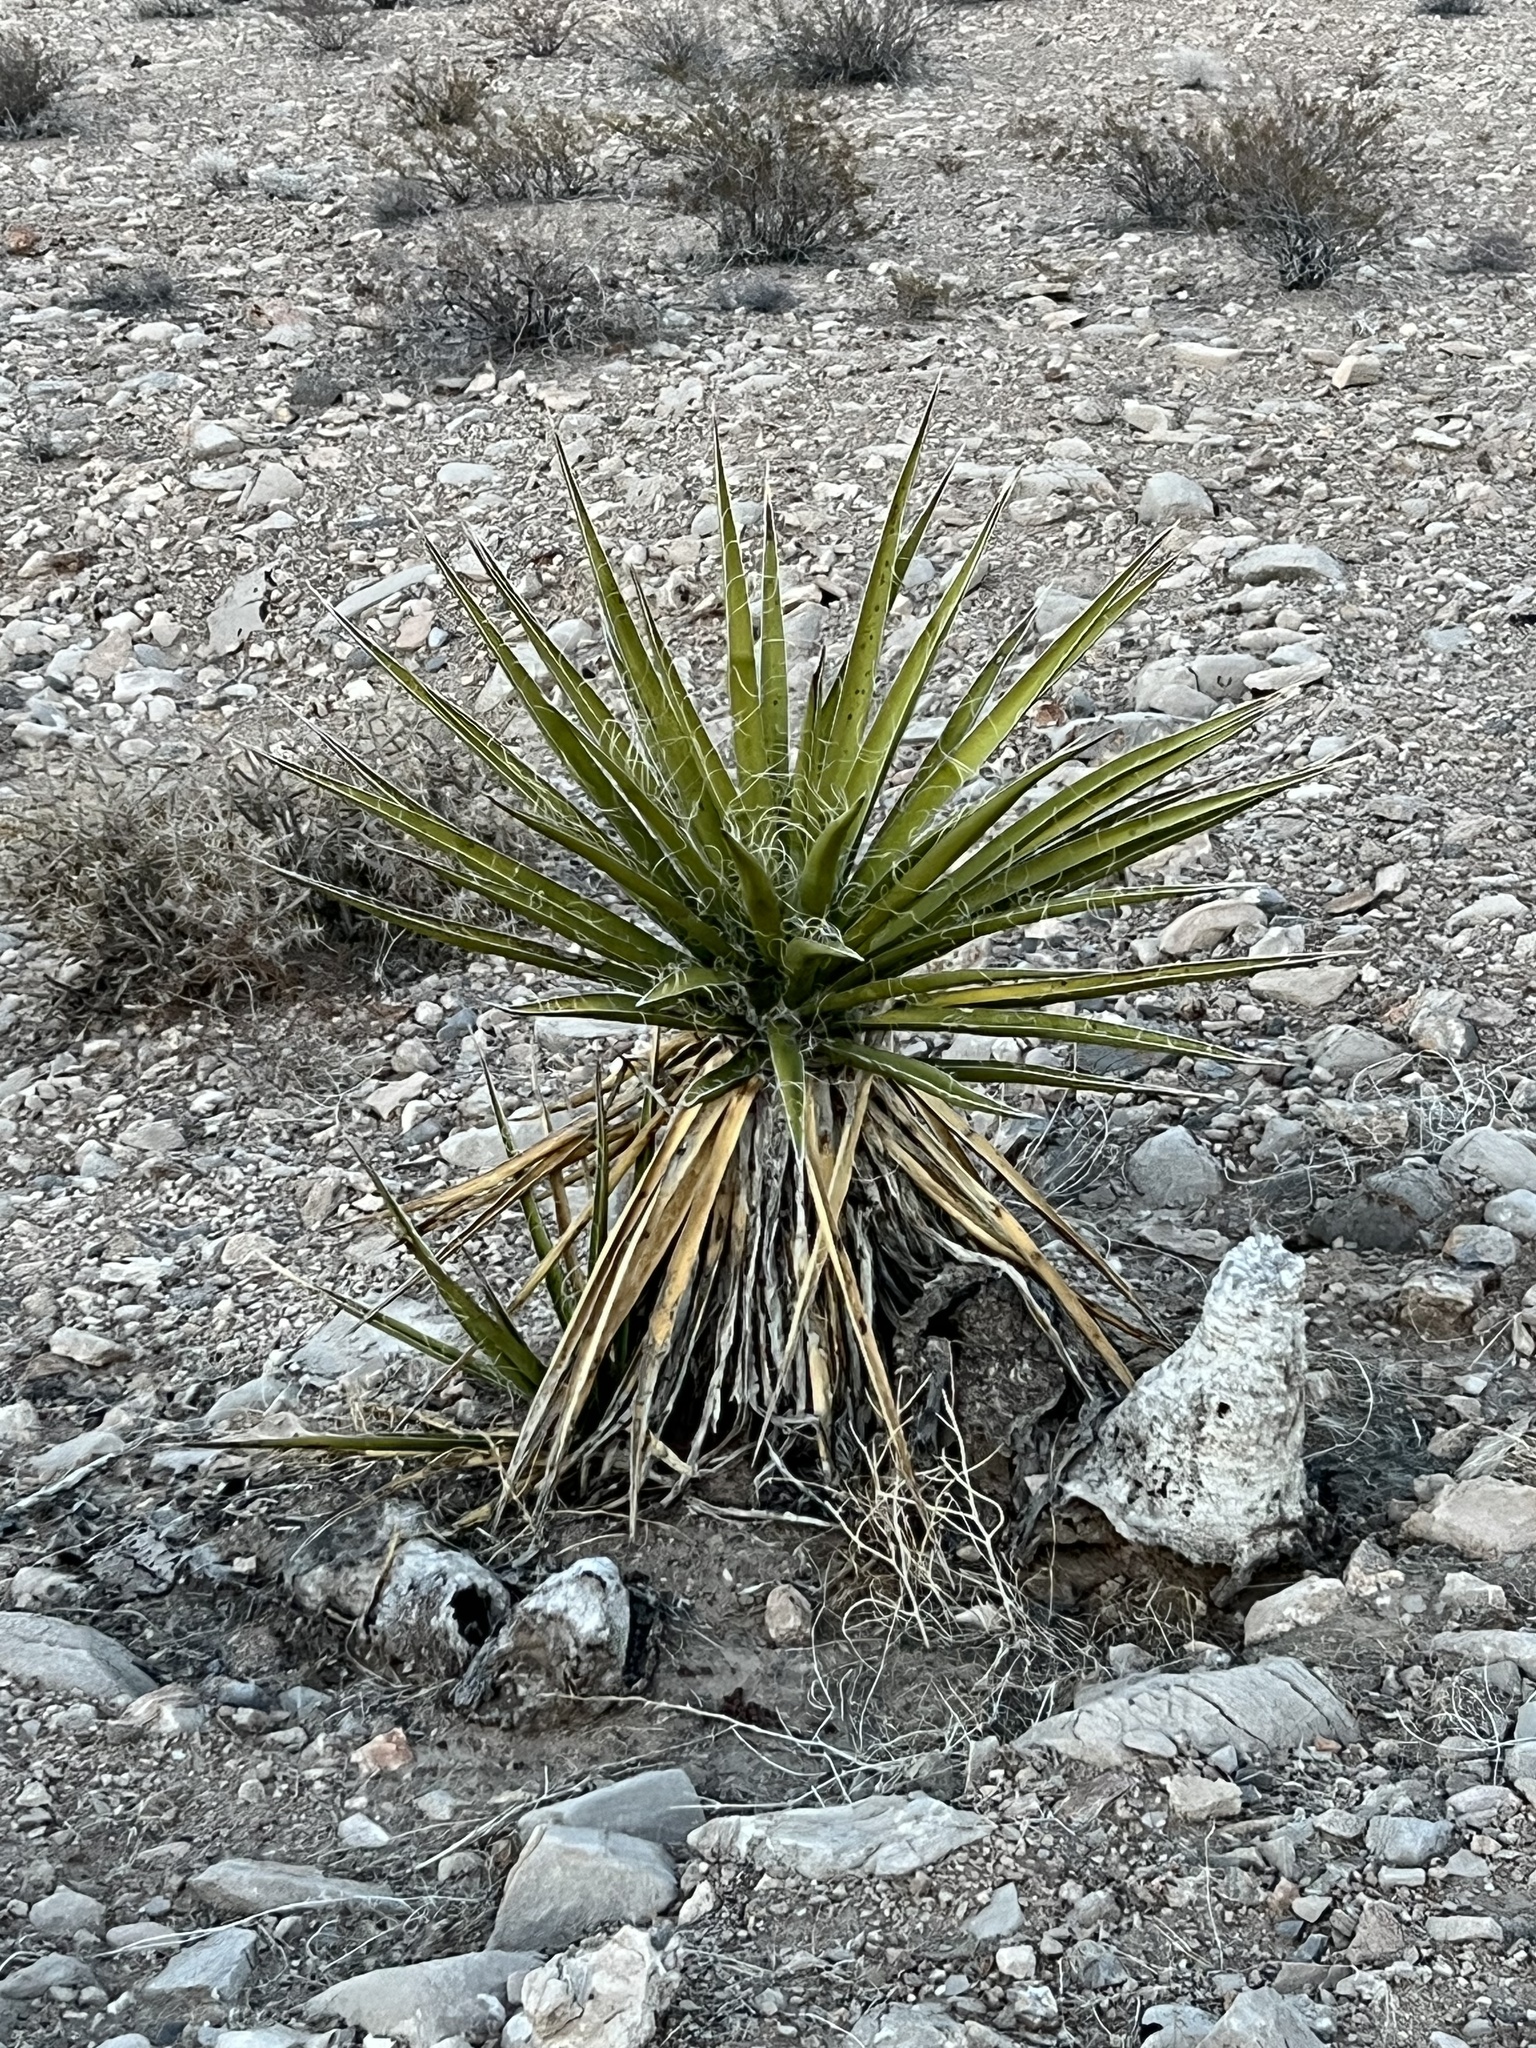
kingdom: Plantae
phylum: Tracheophyta
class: Liliopsida
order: Asparagales
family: Asparagaceae
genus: Yucca
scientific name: Yucca schidigera
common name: Mojave yucca
